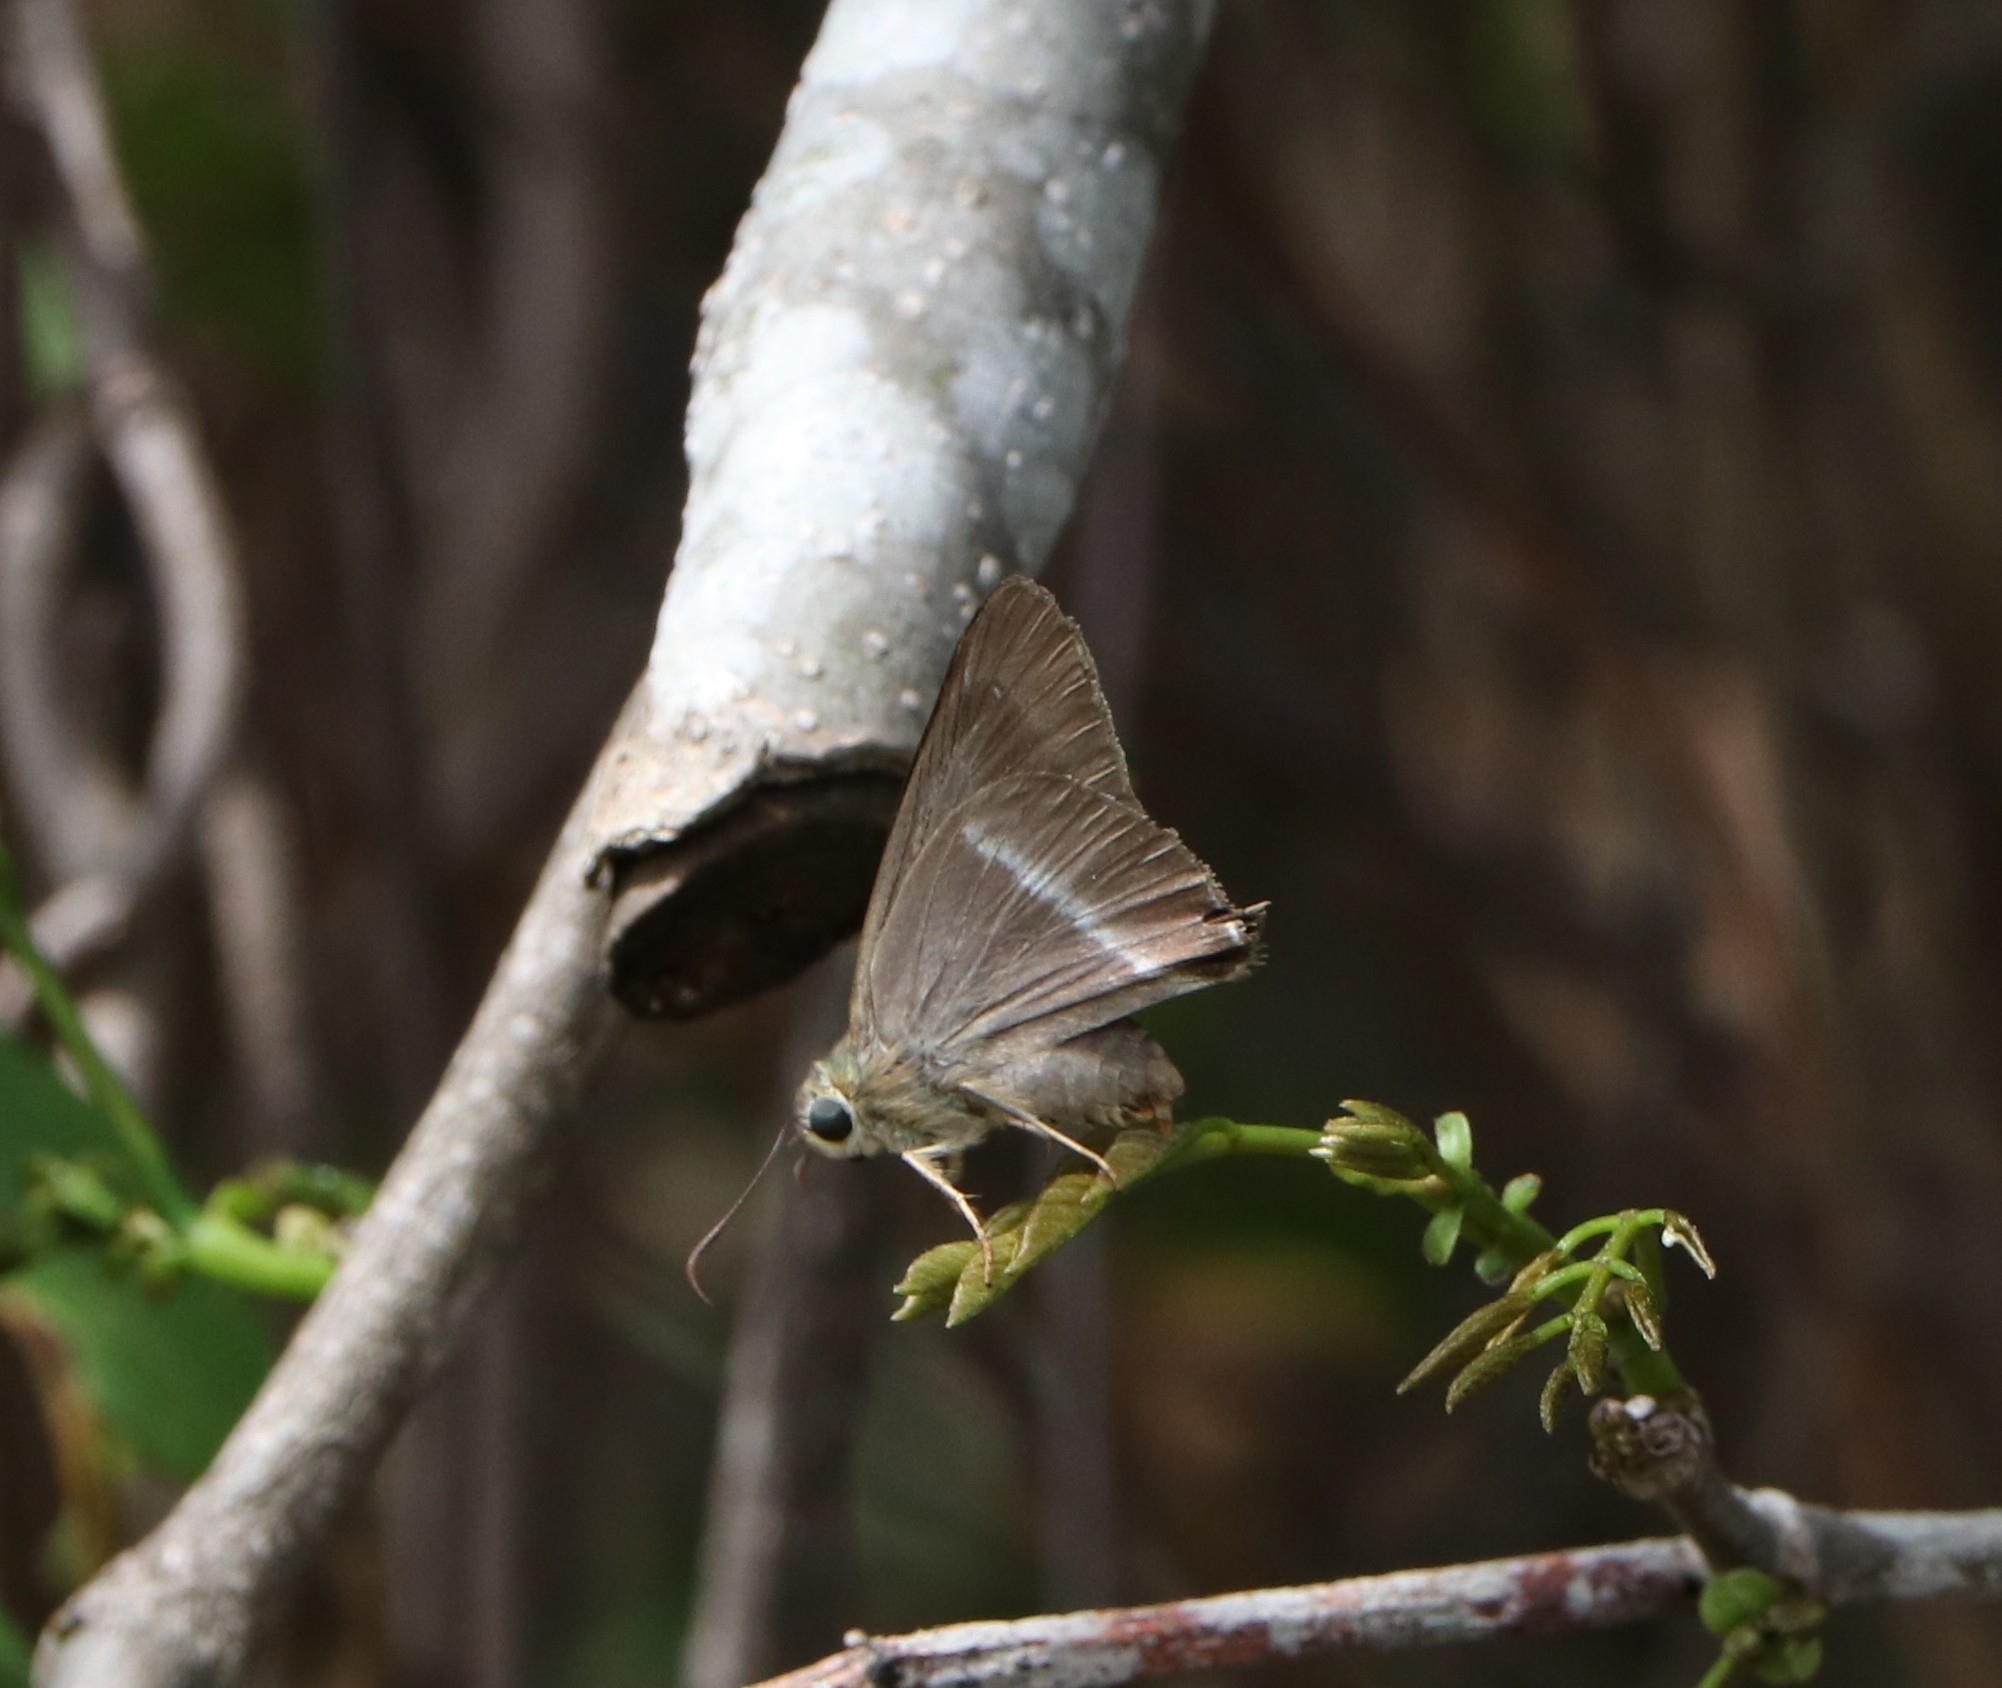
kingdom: Animalia
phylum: Arthropoda
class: Insecta
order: Lepidoptera
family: Hesperiidae
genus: Hasora
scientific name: Hasora chromus
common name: Common banded awl
